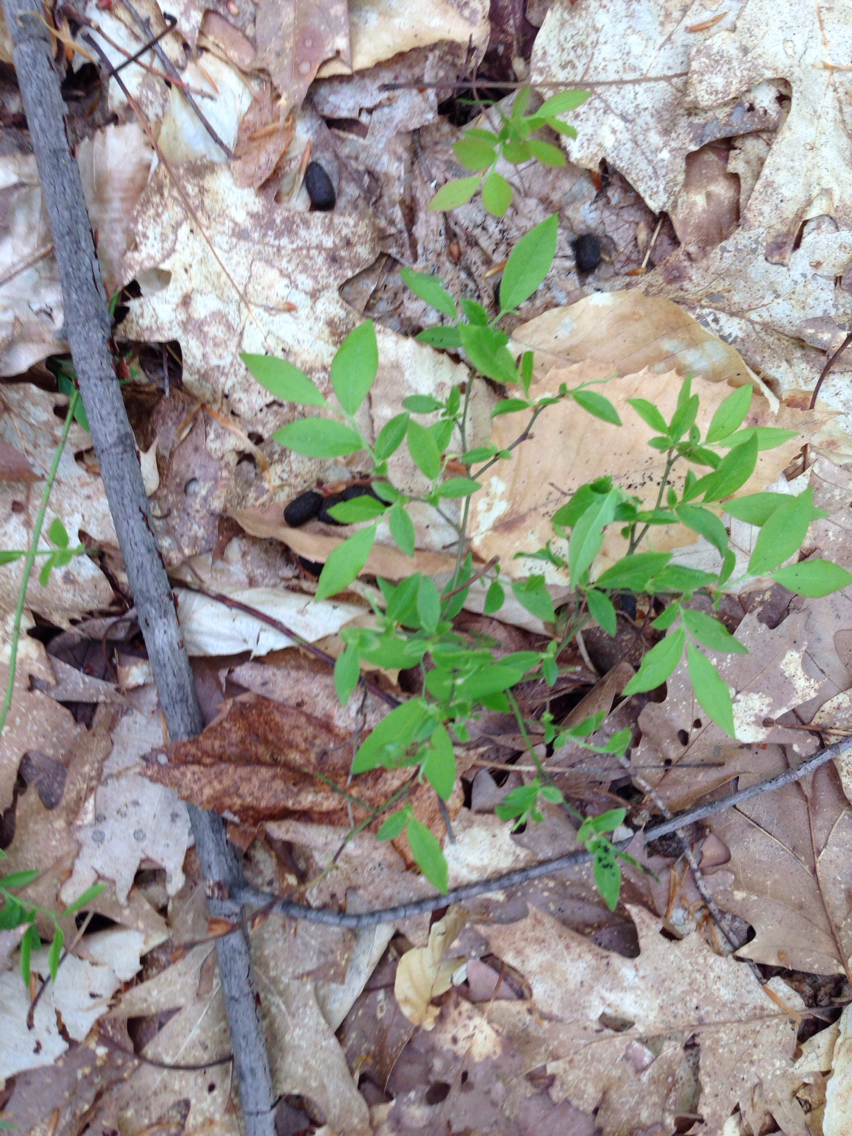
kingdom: Plantae
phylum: Tracheophyta
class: Magnoliopsida
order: Ericales
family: Ericaceae
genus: Vaccinium
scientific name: Vaccinium angustifolium
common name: Early lowbush blueberry
